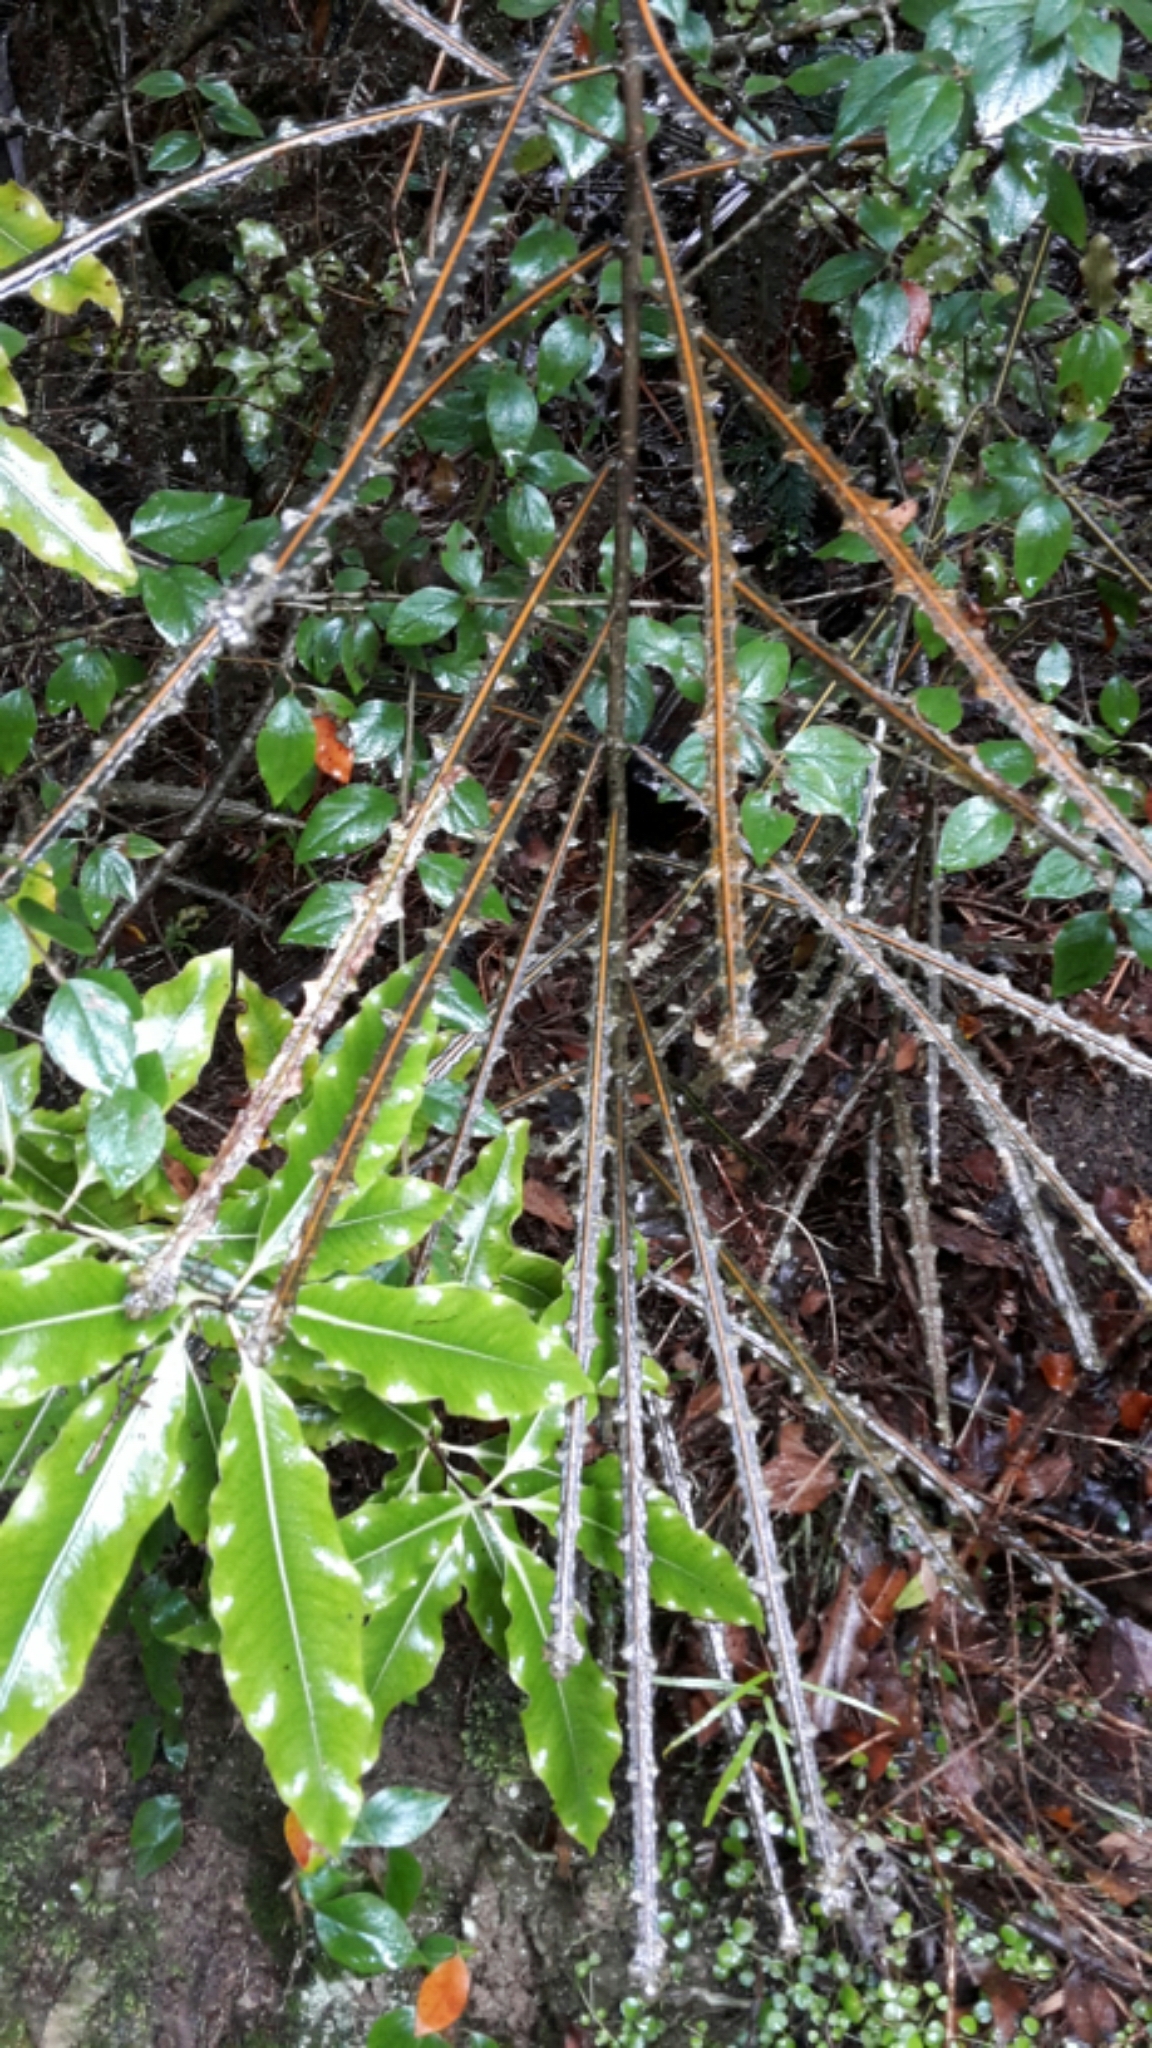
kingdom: Plantae
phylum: Tracheophyta
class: Magnoliopsida
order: Apiales
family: Araliaceae
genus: Pseudopanax
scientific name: Pseudopanax ferox
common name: Fierce lancewood
